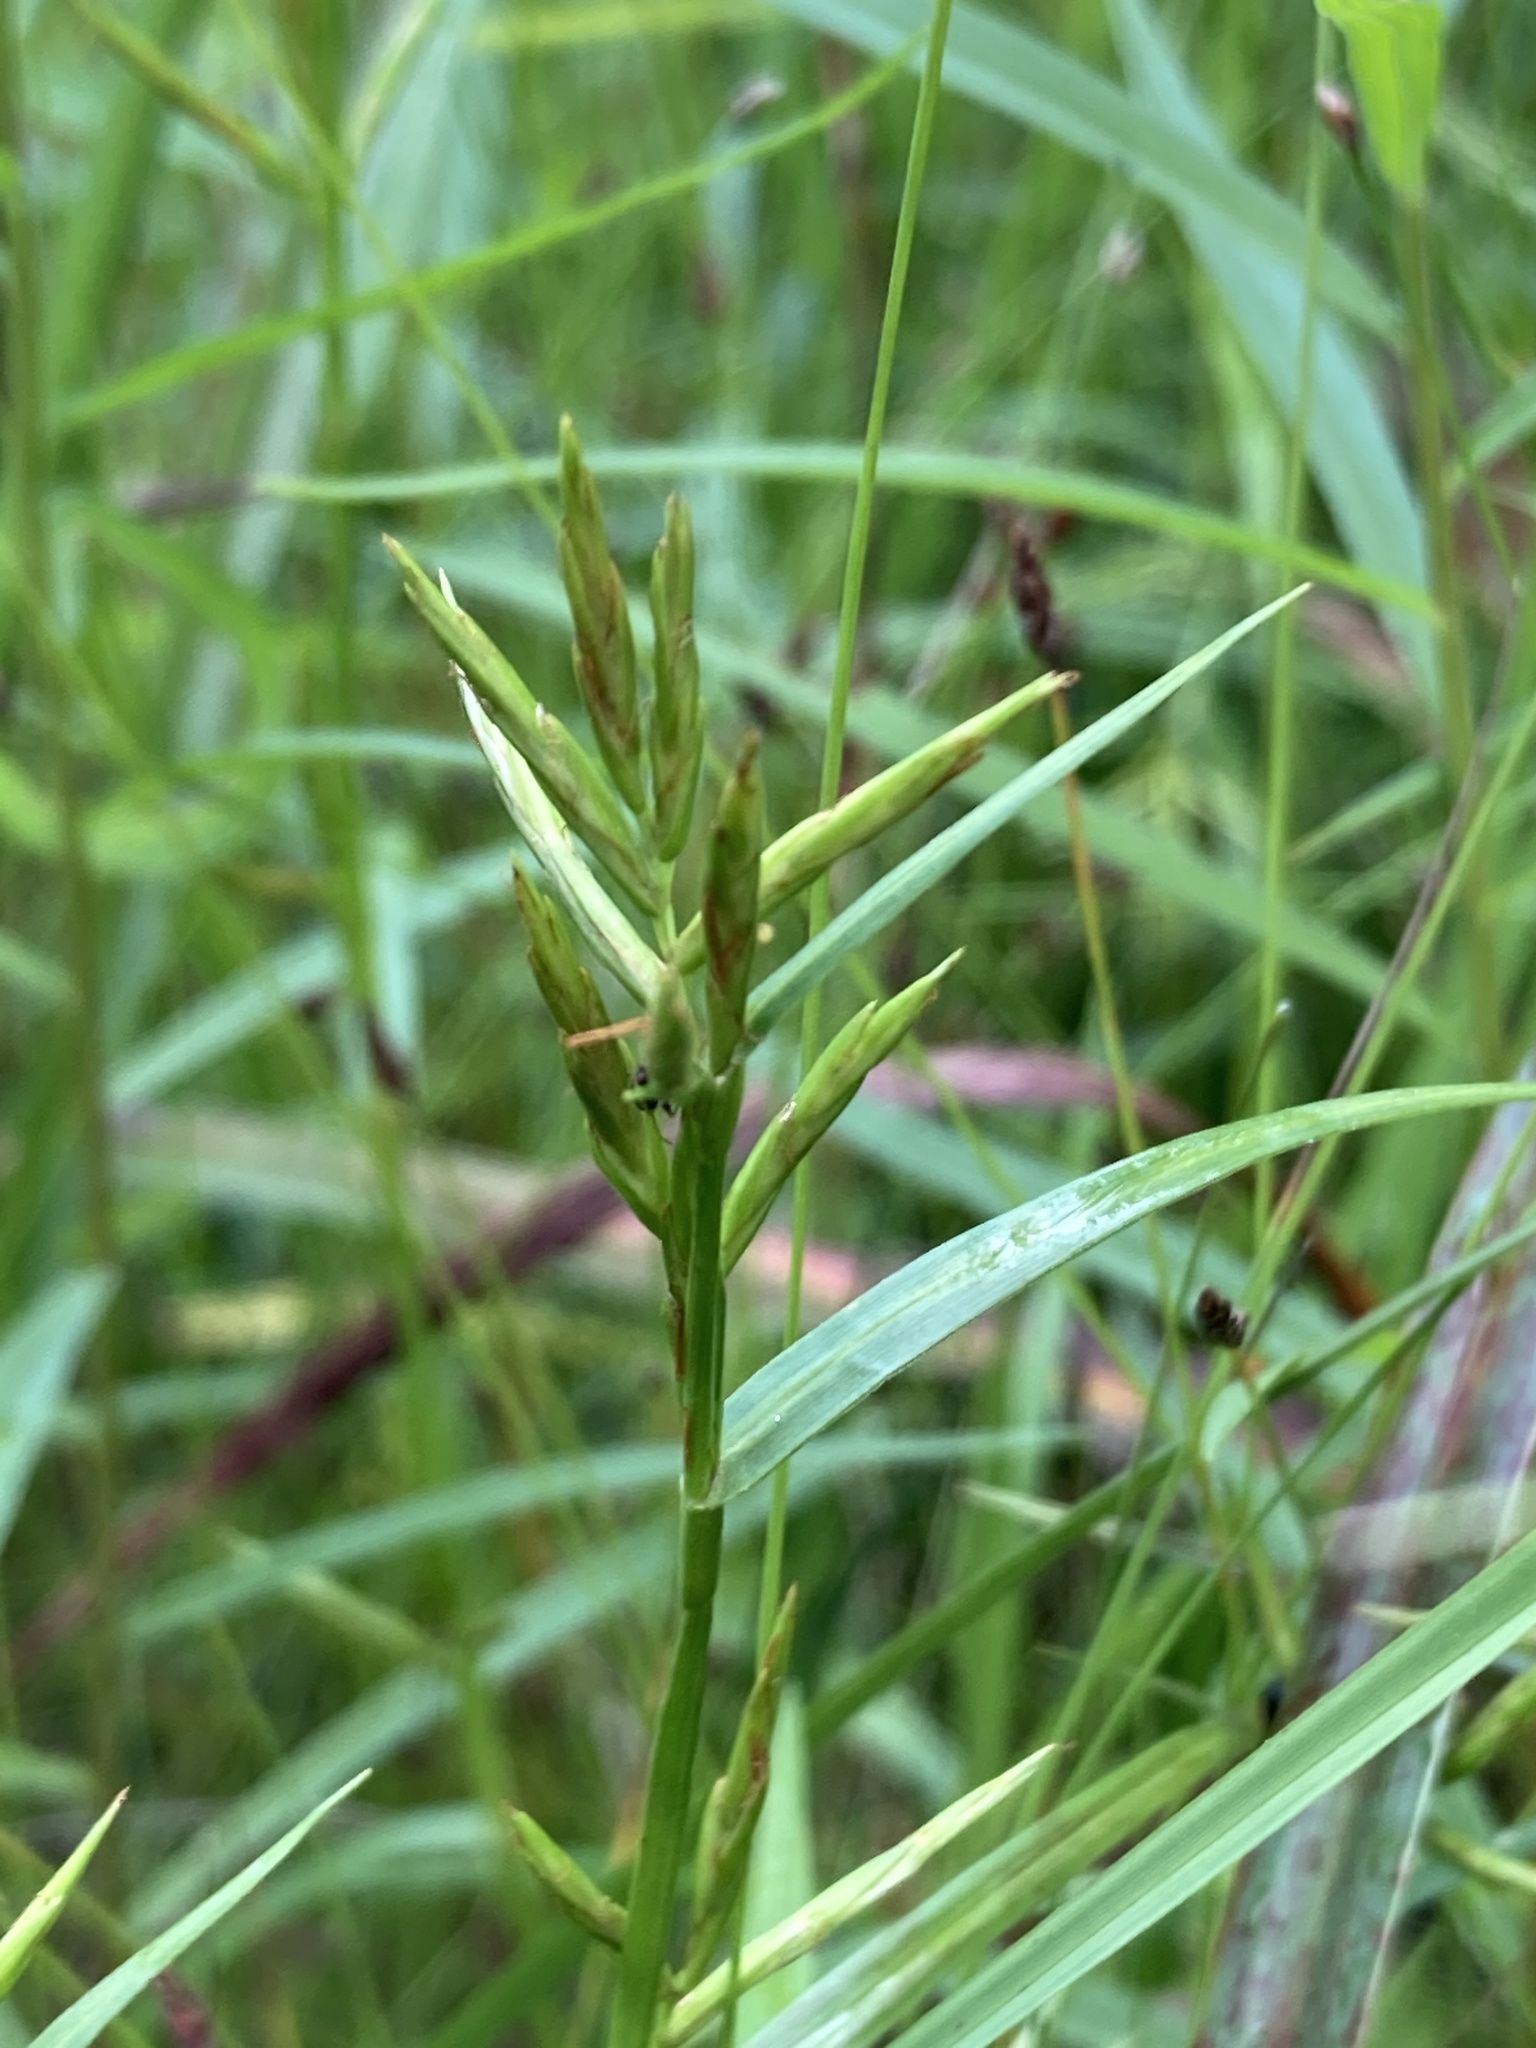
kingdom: Plantae
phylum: Tracheophyta
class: Liliopsida
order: Poales
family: Cyperaceae
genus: Dulichium
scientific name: Dulichium arundinaceum
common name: Three-way sedge
